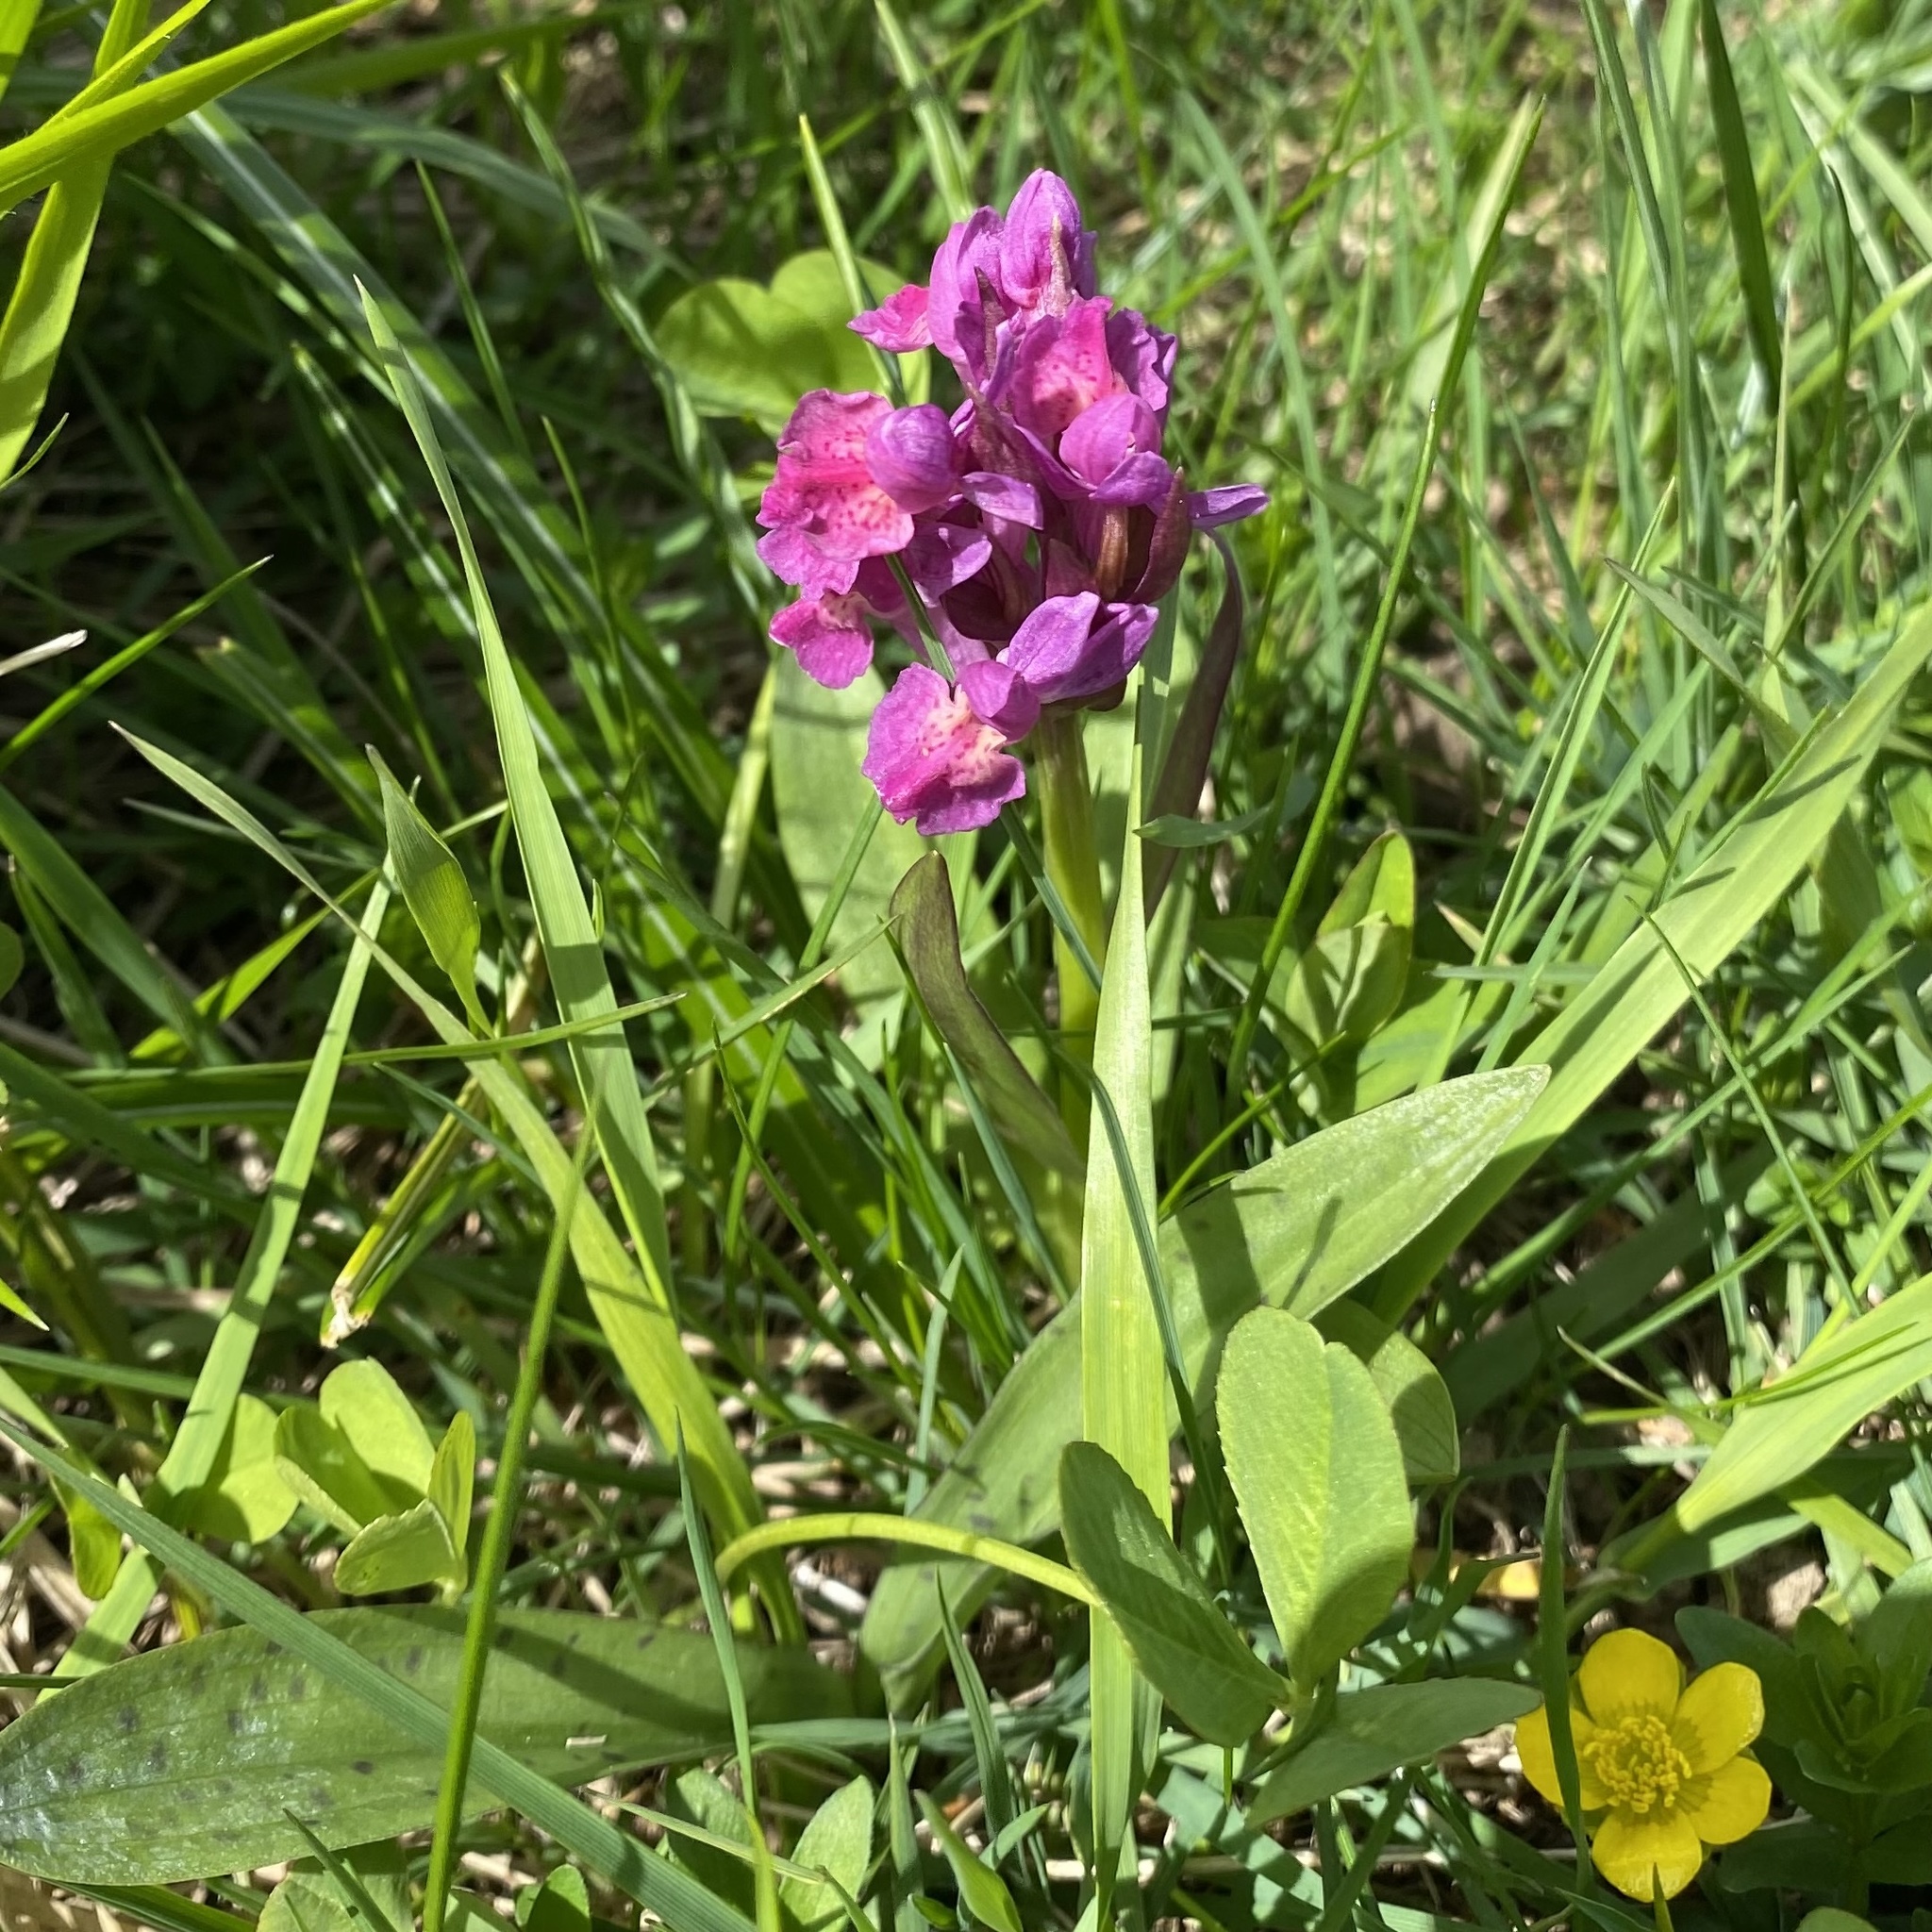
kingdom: Plantae
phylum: Tracheophyta
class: Liliopsida
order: Asparagales
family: Orchidaceae
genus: Dactylorhiza
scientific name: Dactylorhiza sambucina
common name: Elder-flowered orchid
